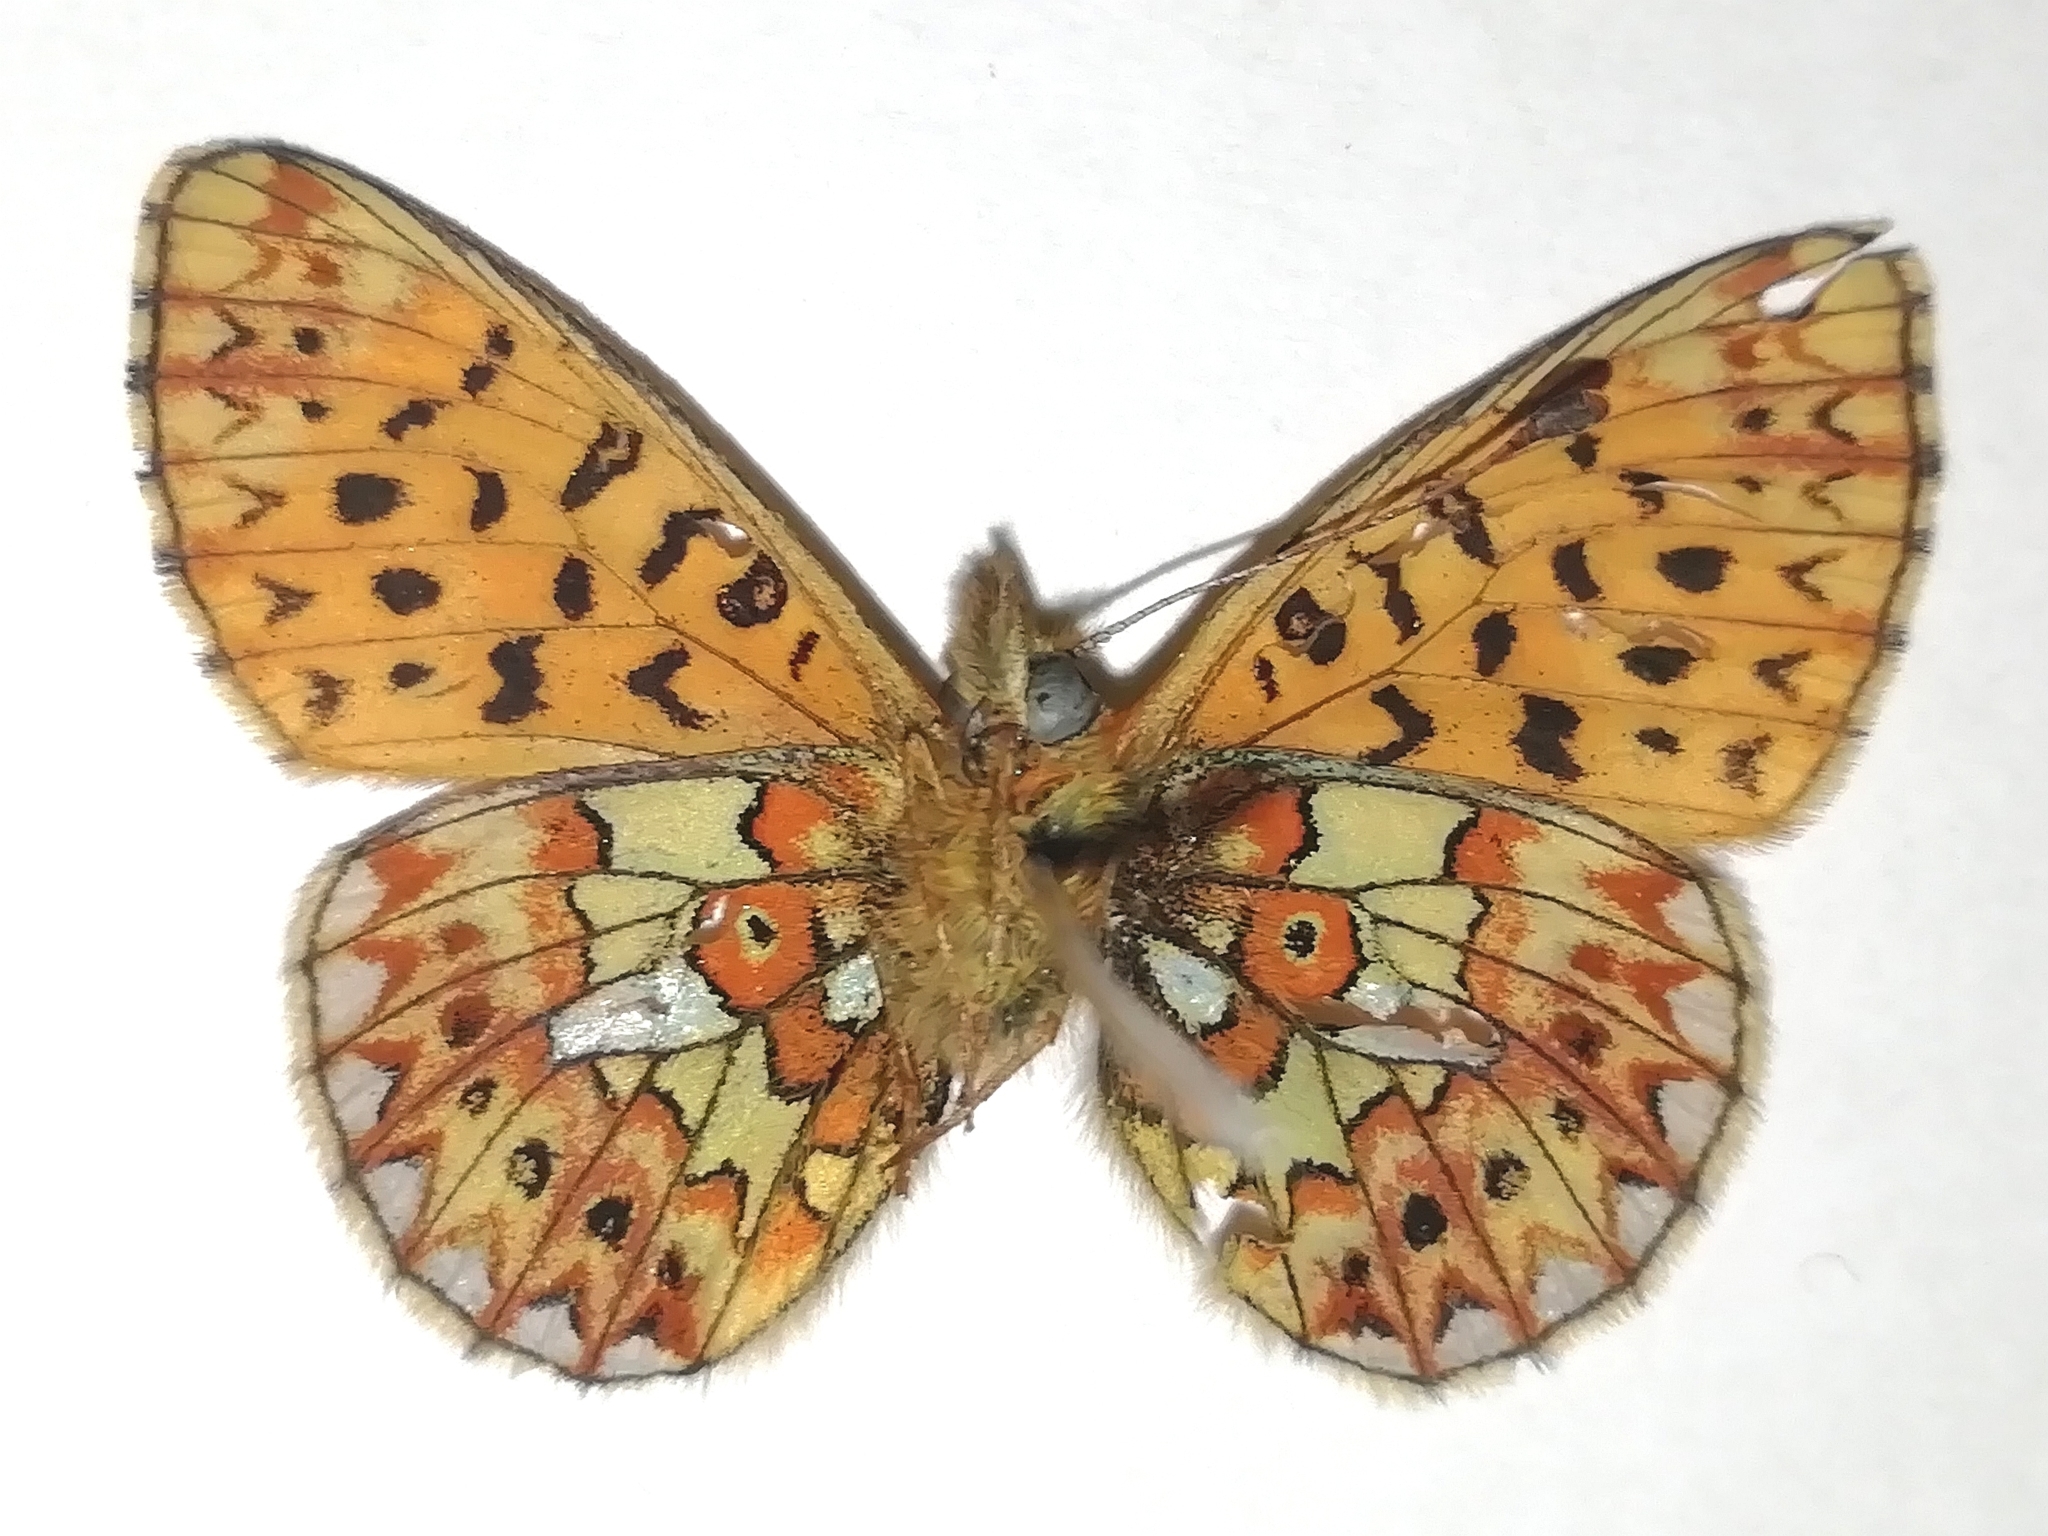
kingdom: Animalia
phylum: Arthropoda
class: Insecta
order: Lepidoptera
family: Nymphalidae
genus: Clossiana
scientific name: Clossiana euphrosyne
